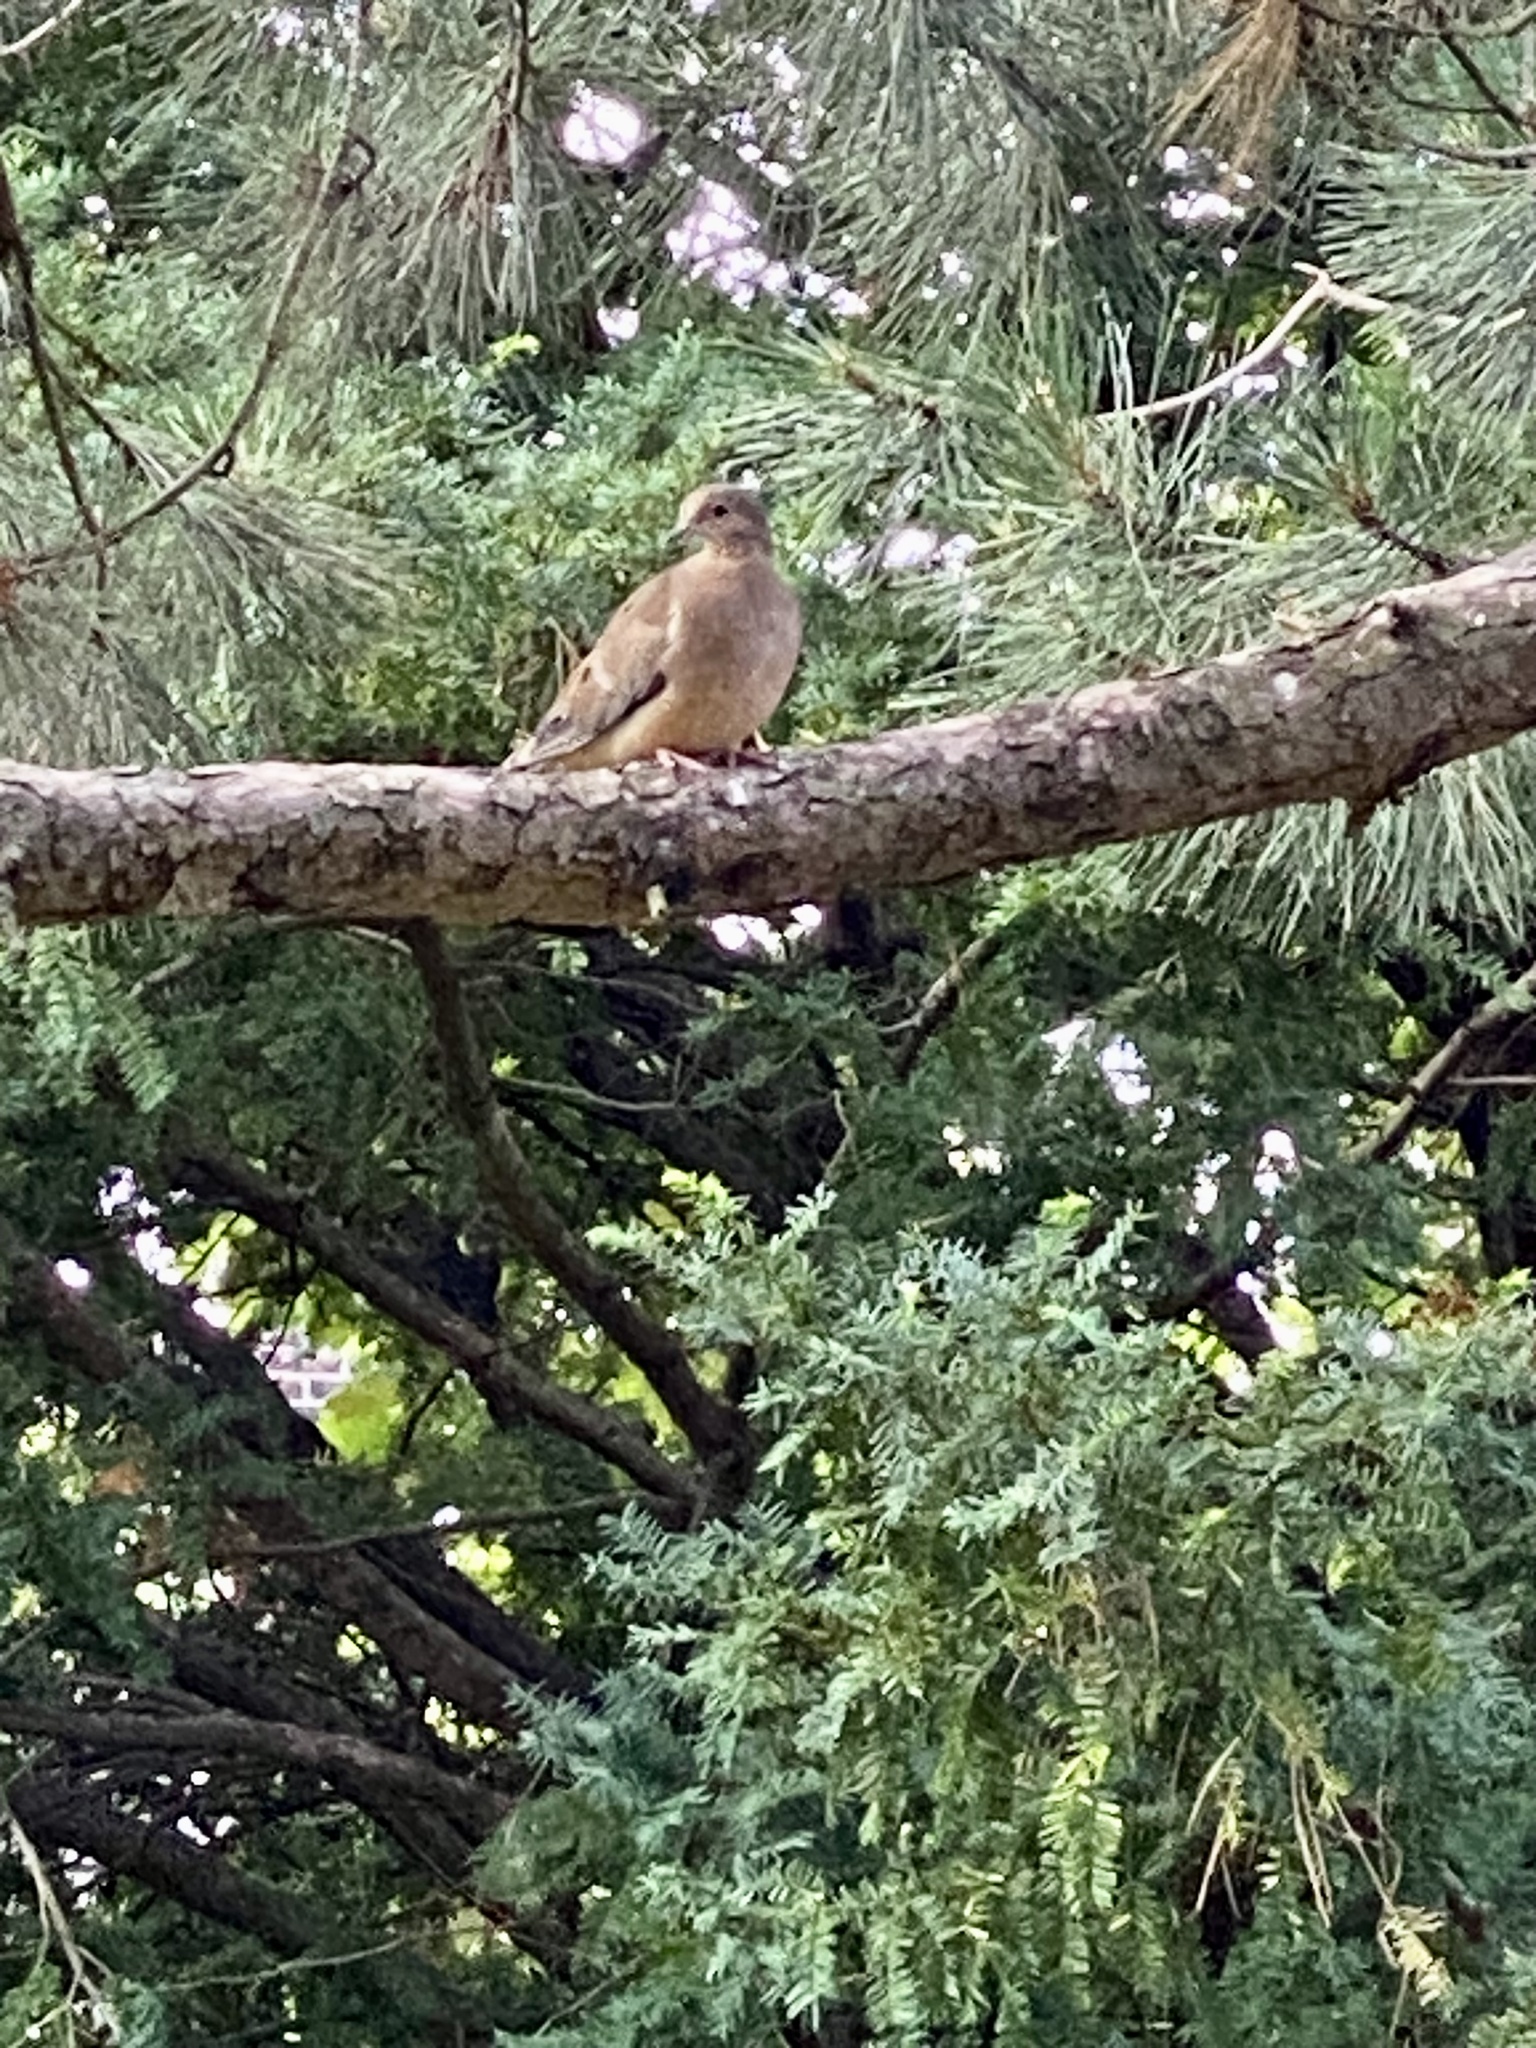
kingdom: Animalia
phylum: Chordata
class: Aves
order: Columbiformes
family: Columbidae
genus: Zenaida
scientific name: Zenaida macroura
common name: Mourning dove
